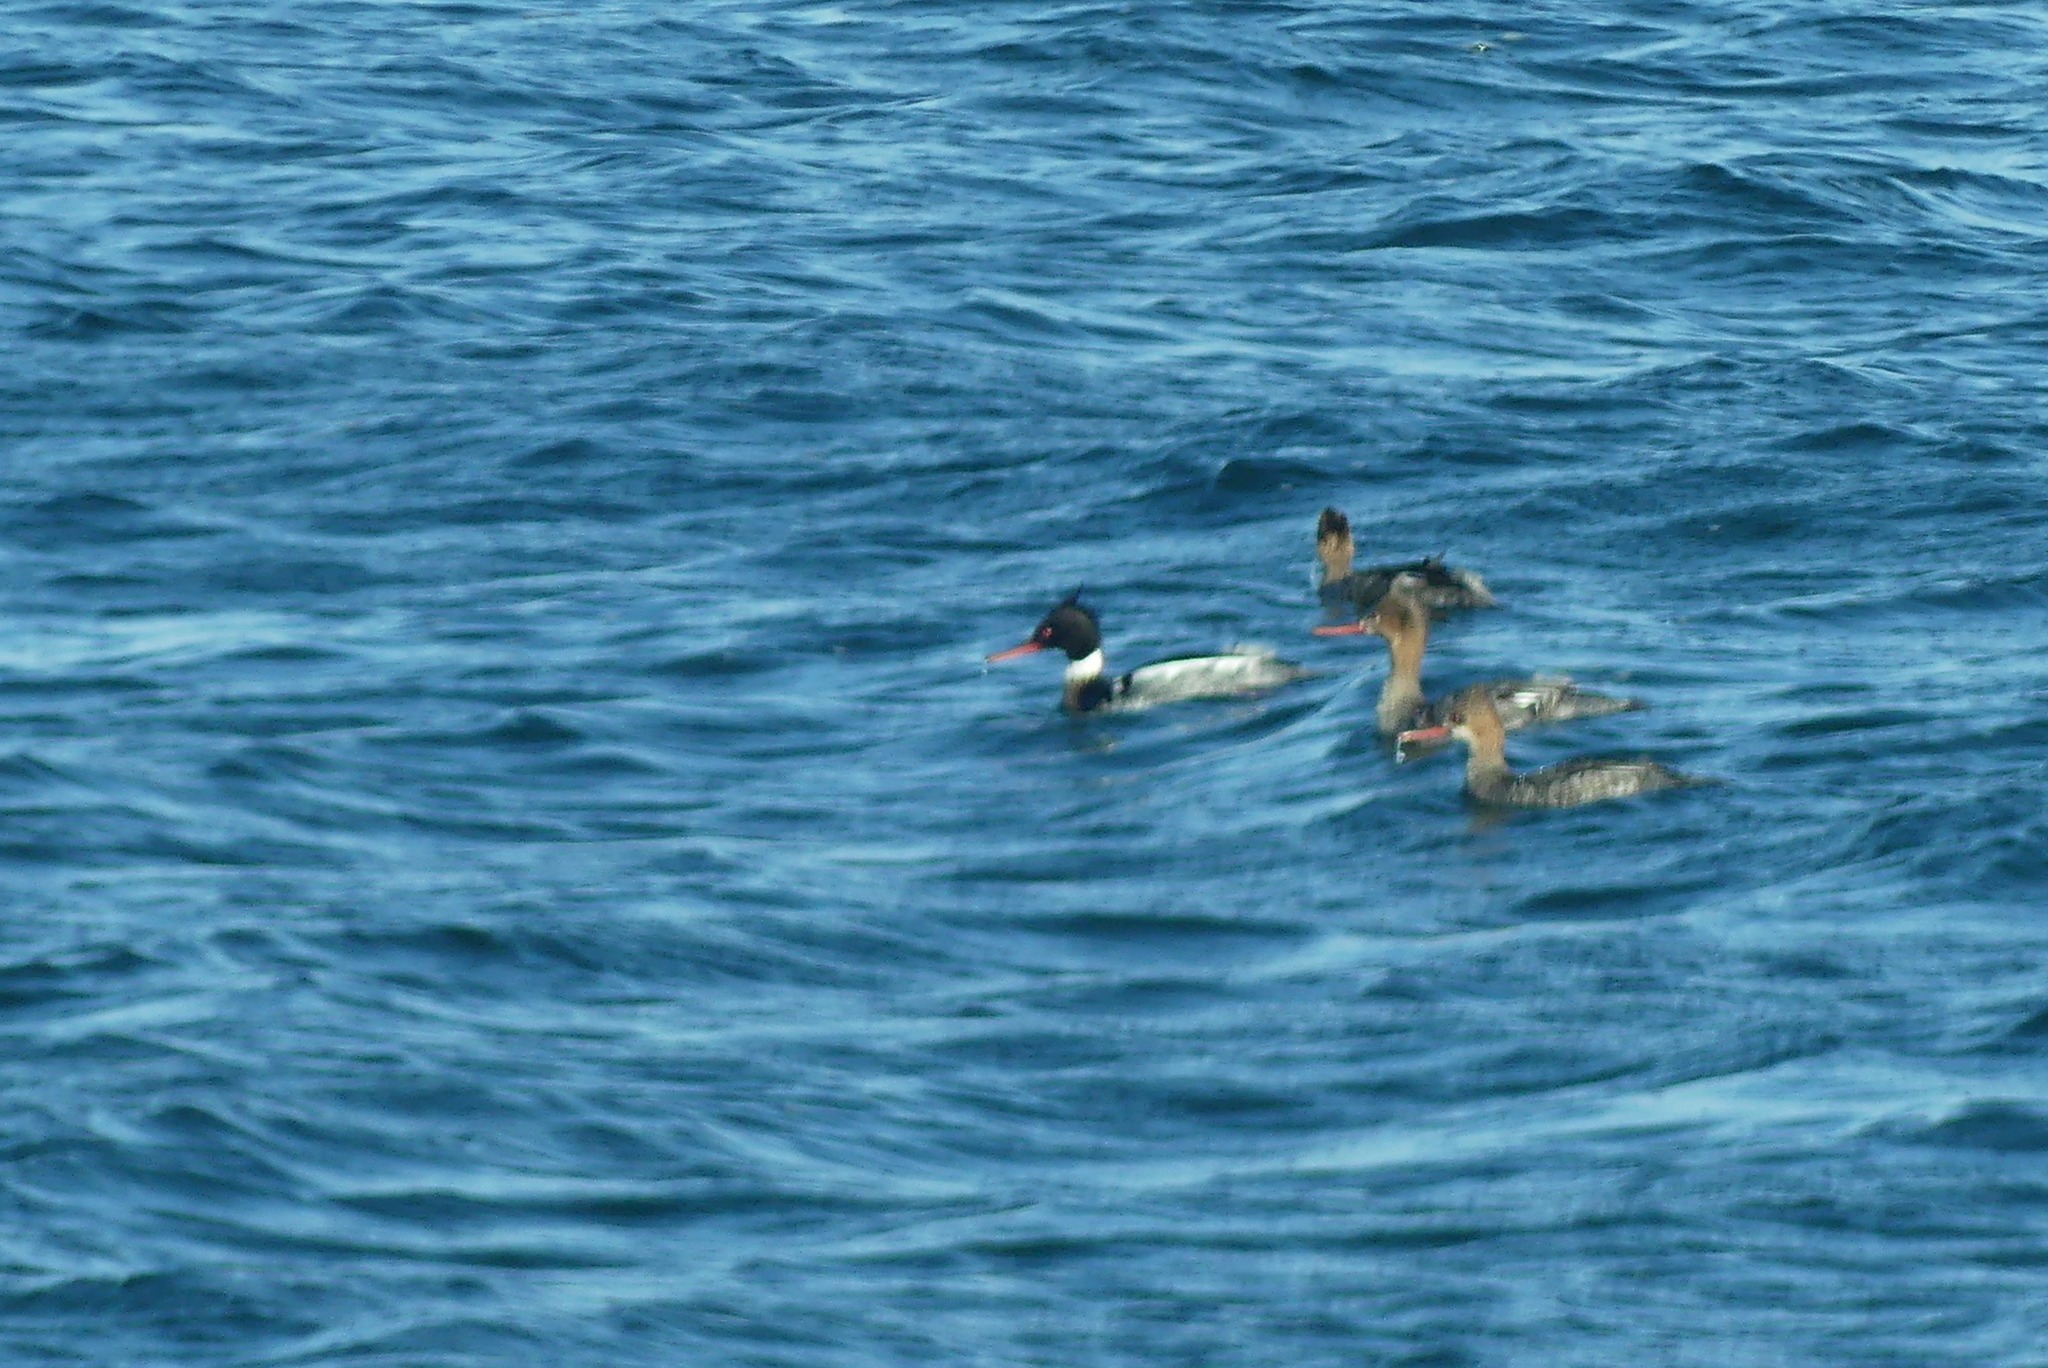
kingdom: Animalia
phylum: Chordata
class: Aves
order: Anseriformes
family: Anatidae
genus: Mergus
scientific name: Mergus serrator
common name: Red-breasted merganser
